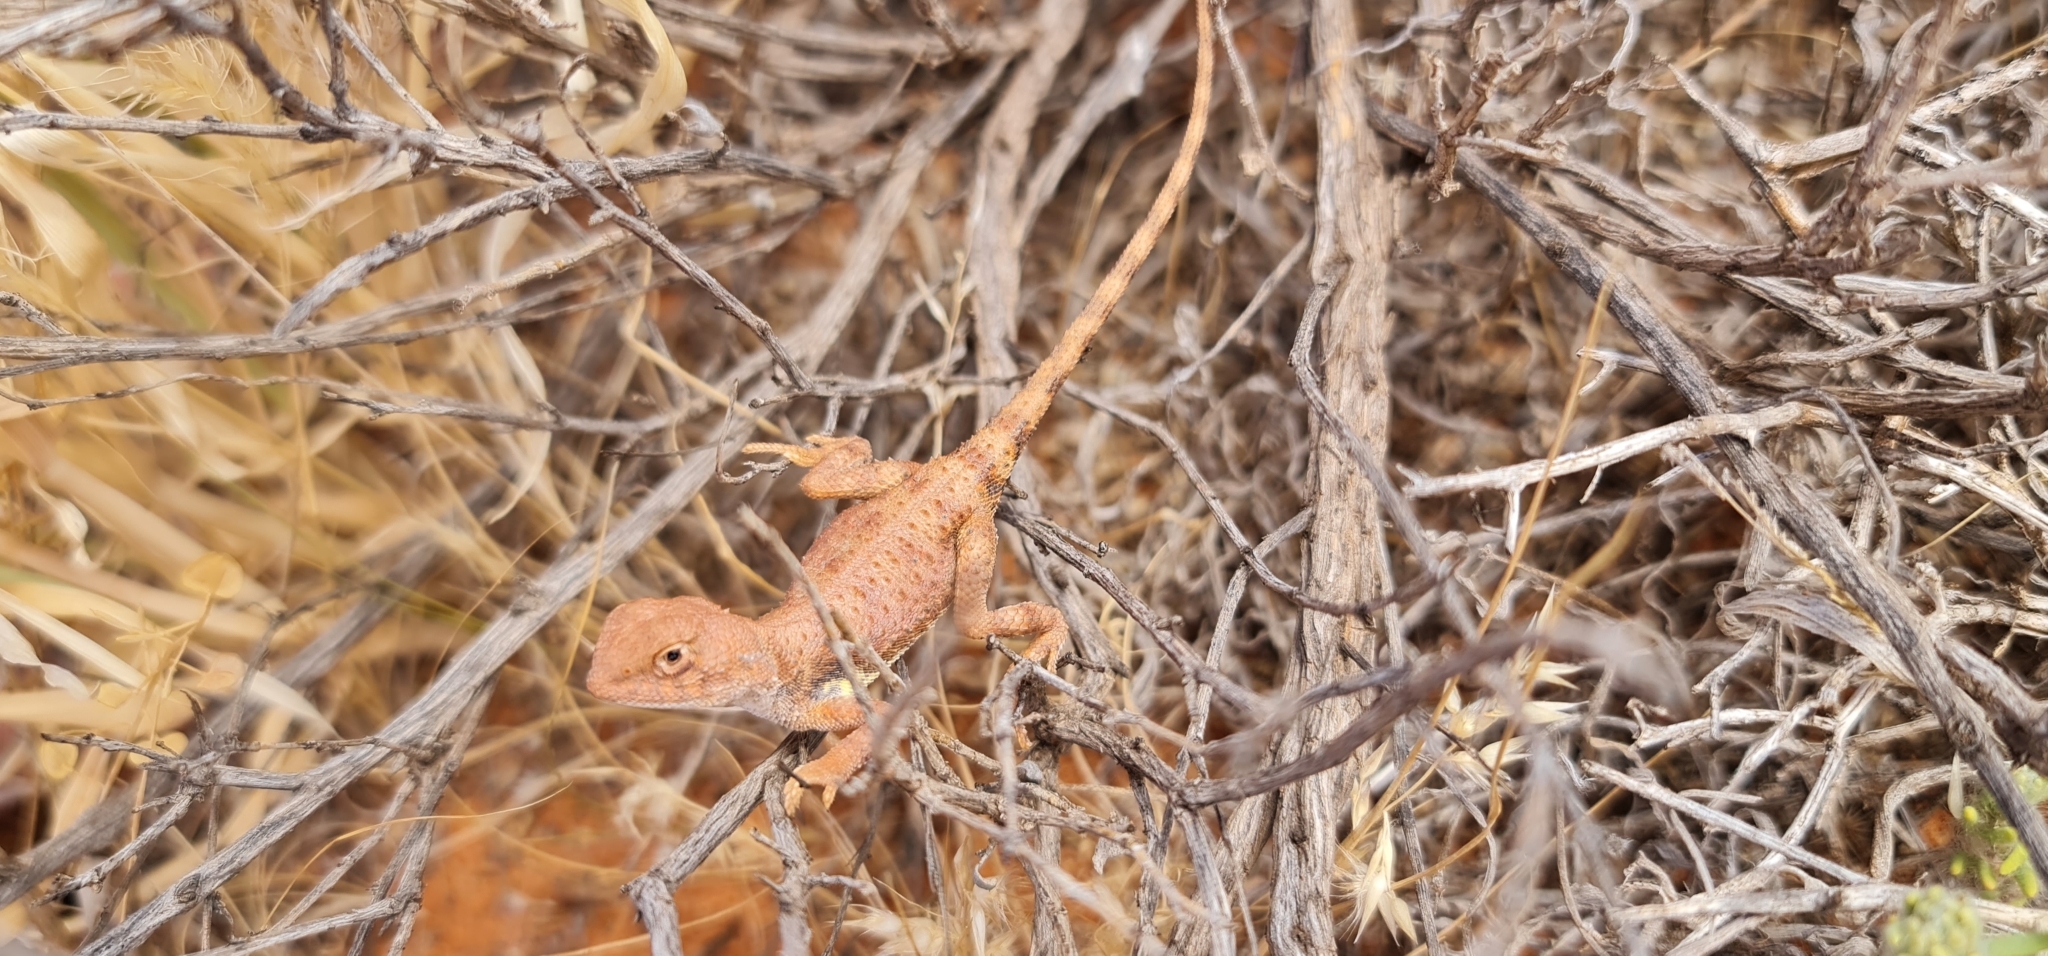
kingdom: Animalia
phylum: Chordata
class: Squamata
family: Agamidae
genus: Tympanocryptis
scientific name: Tympanocryptis intima
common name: Gibber earless dragon
